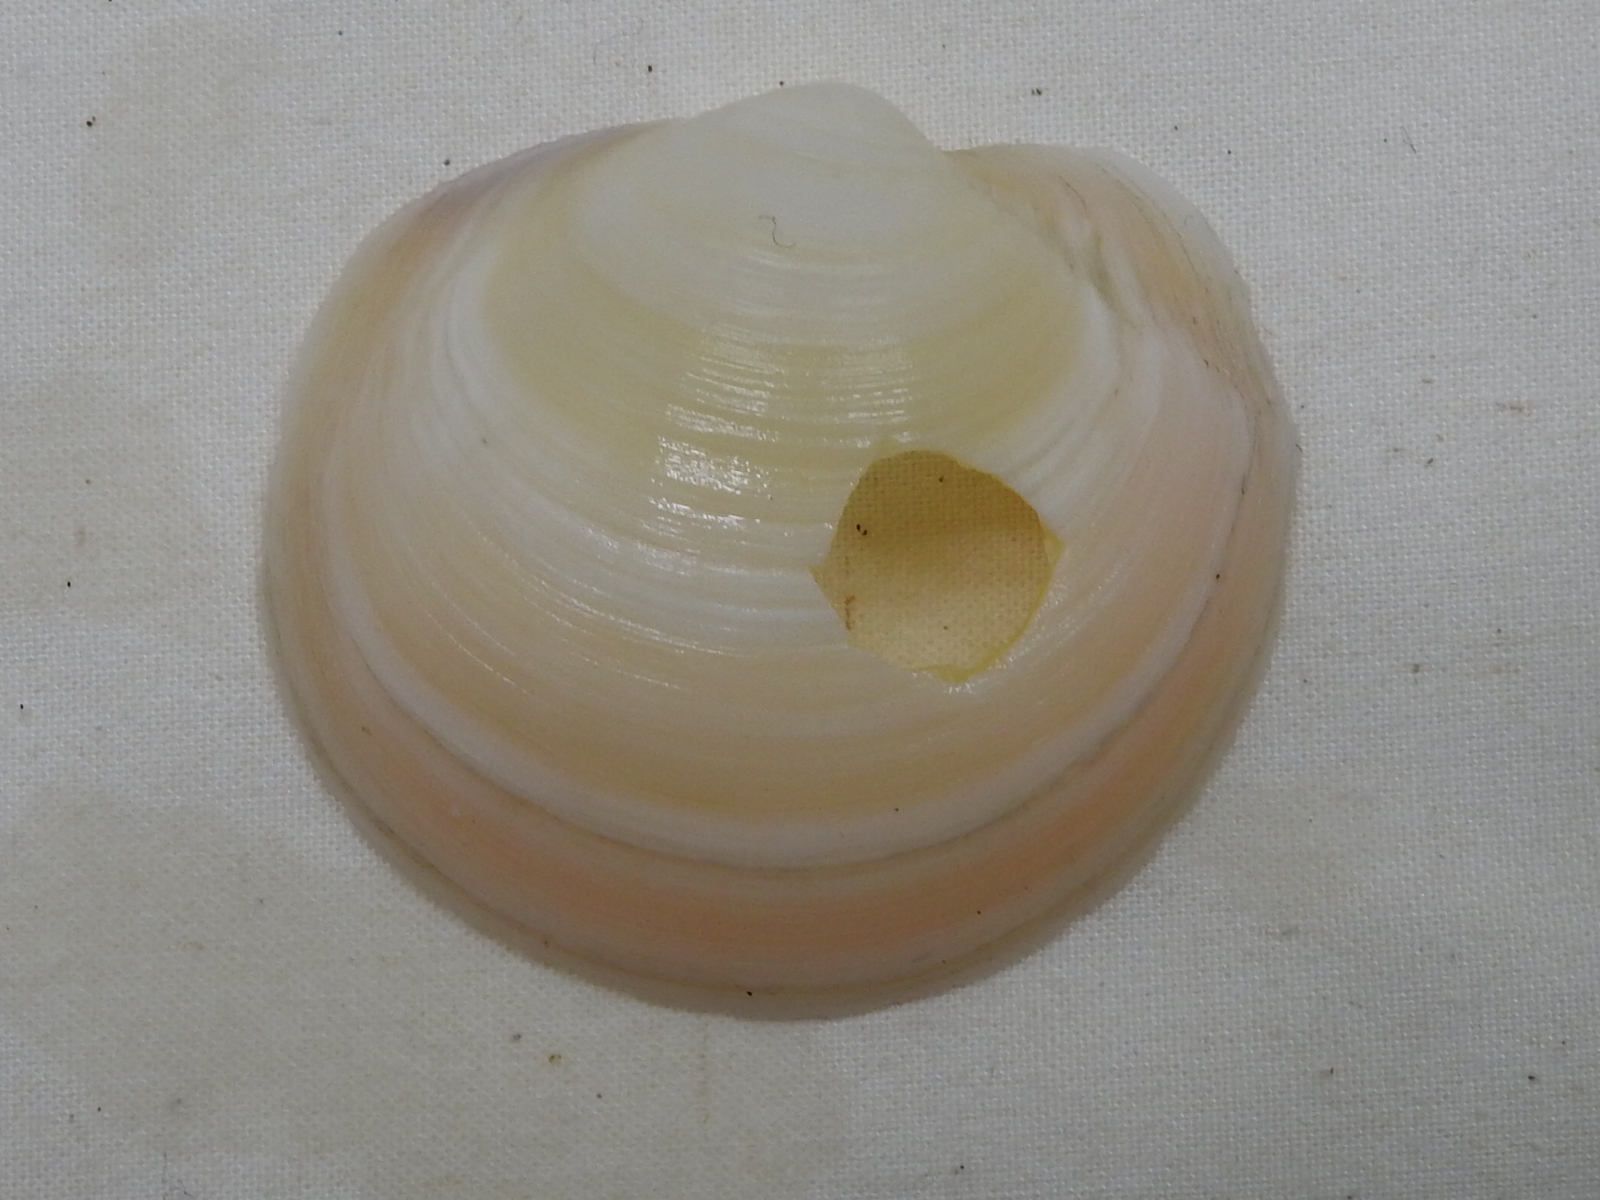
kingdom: Animalia
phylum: Mollusca
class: Bivalvia
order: Lucinida
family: Lucinidae
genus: Anodontia
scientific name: Anodontia alba
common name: Buttercup lucine
